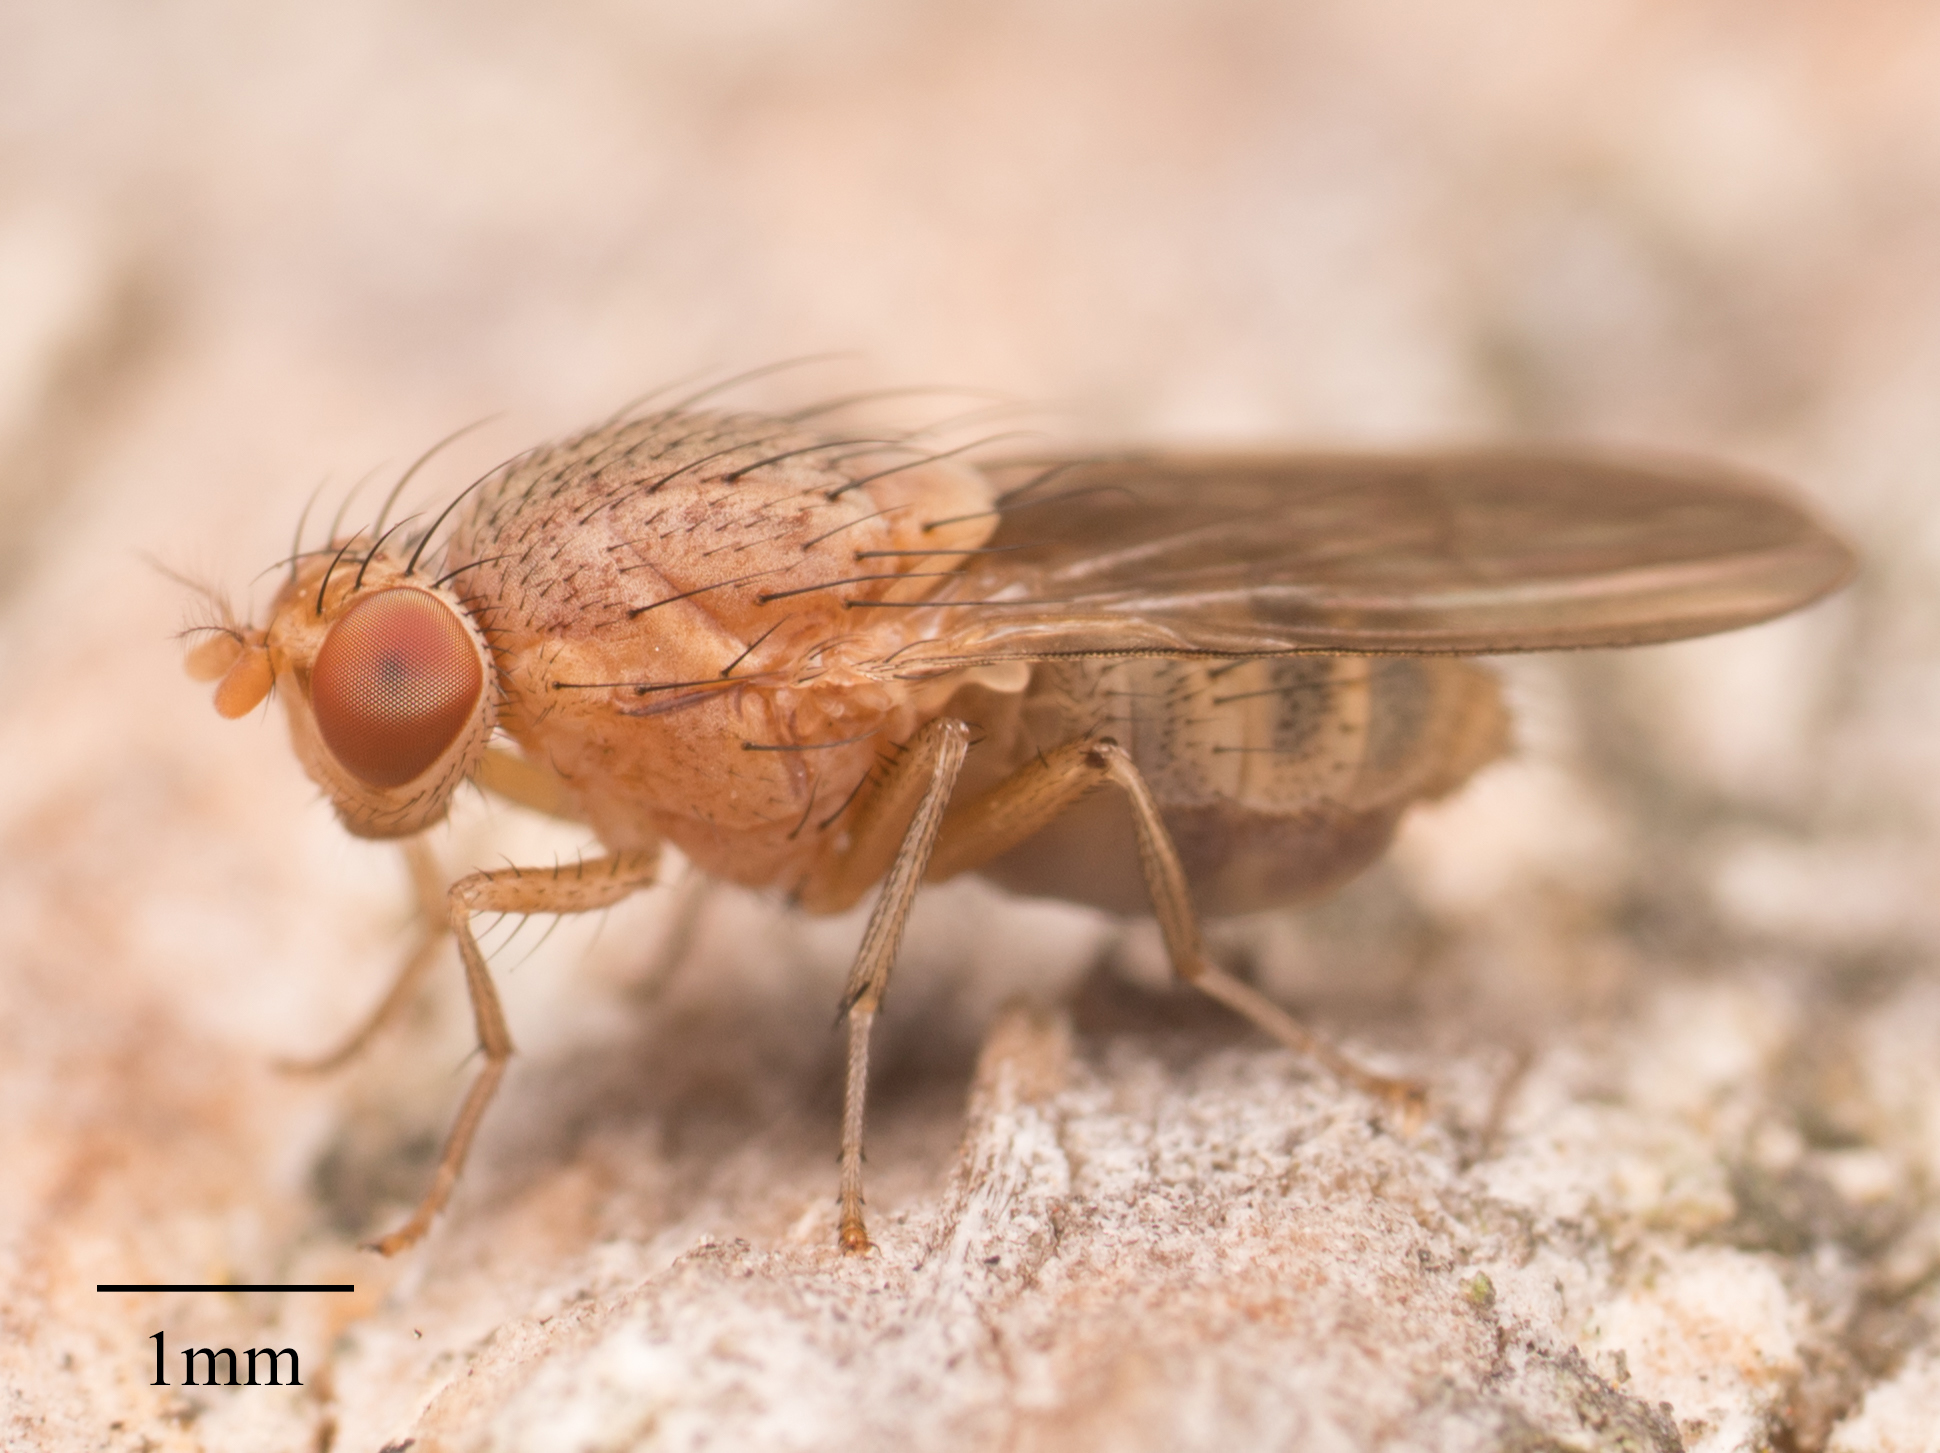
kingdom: Animalia
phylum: Arthropoda
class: Insecta
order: Diptera
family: Lauxaniidae
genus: Minettia
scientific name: Minettia flaveola
